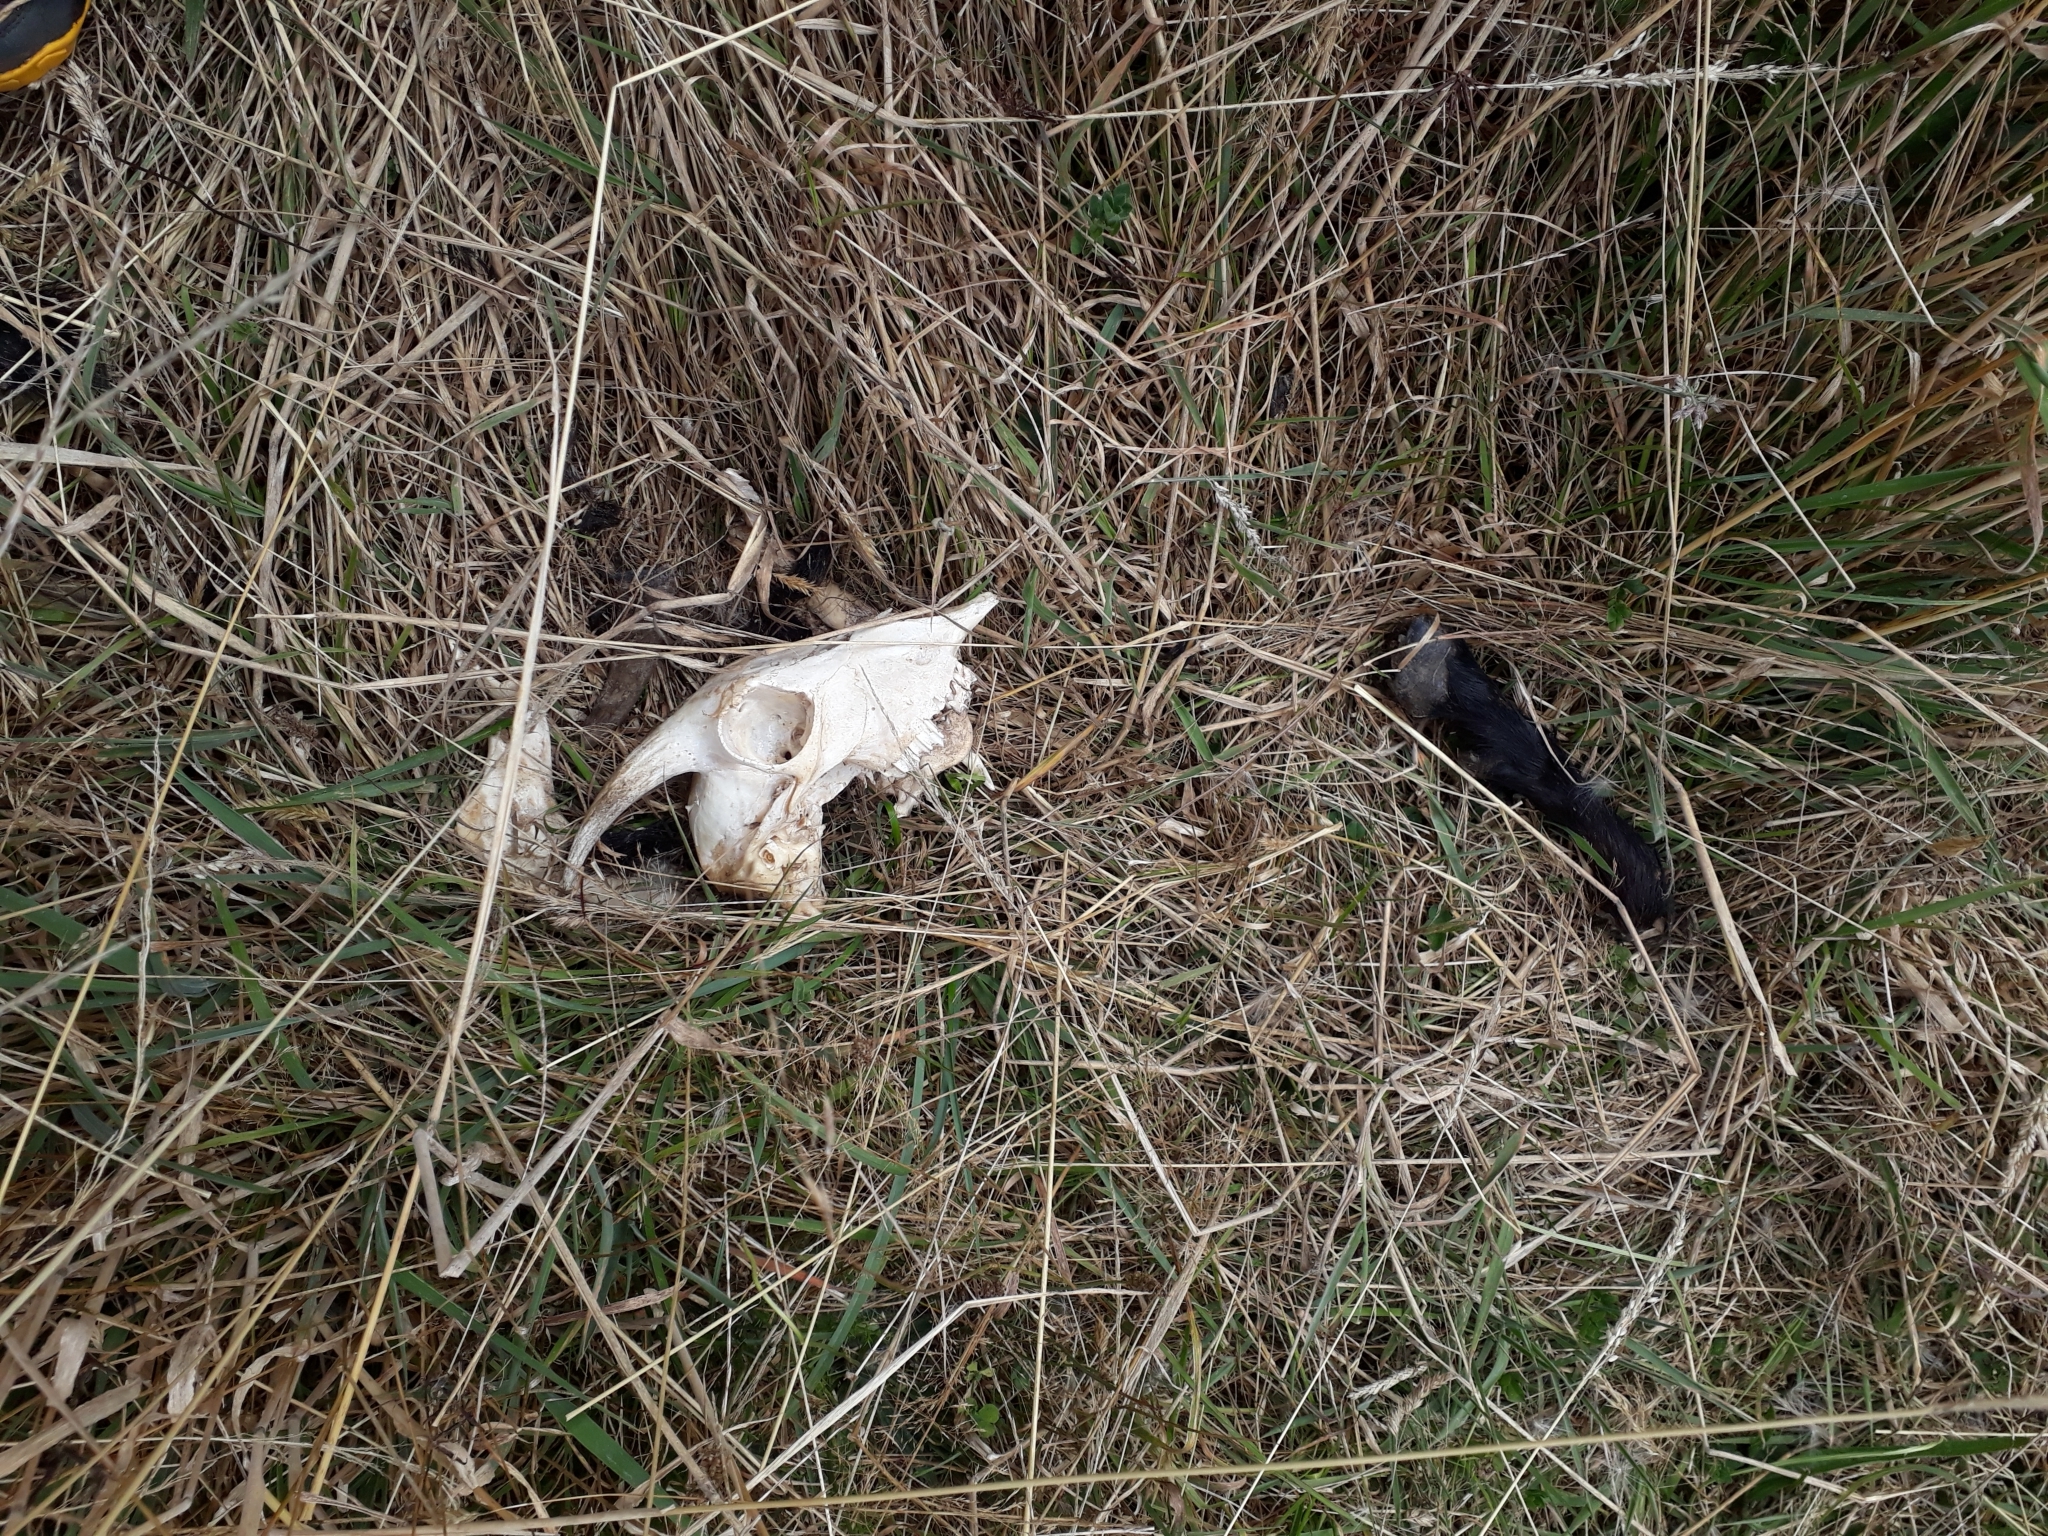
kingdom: Animalia
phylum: Chordata
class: Mammalia
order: Artiodactyla
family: Bovidae
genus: Capra
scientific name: Capra hircus
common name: Domestic goat
